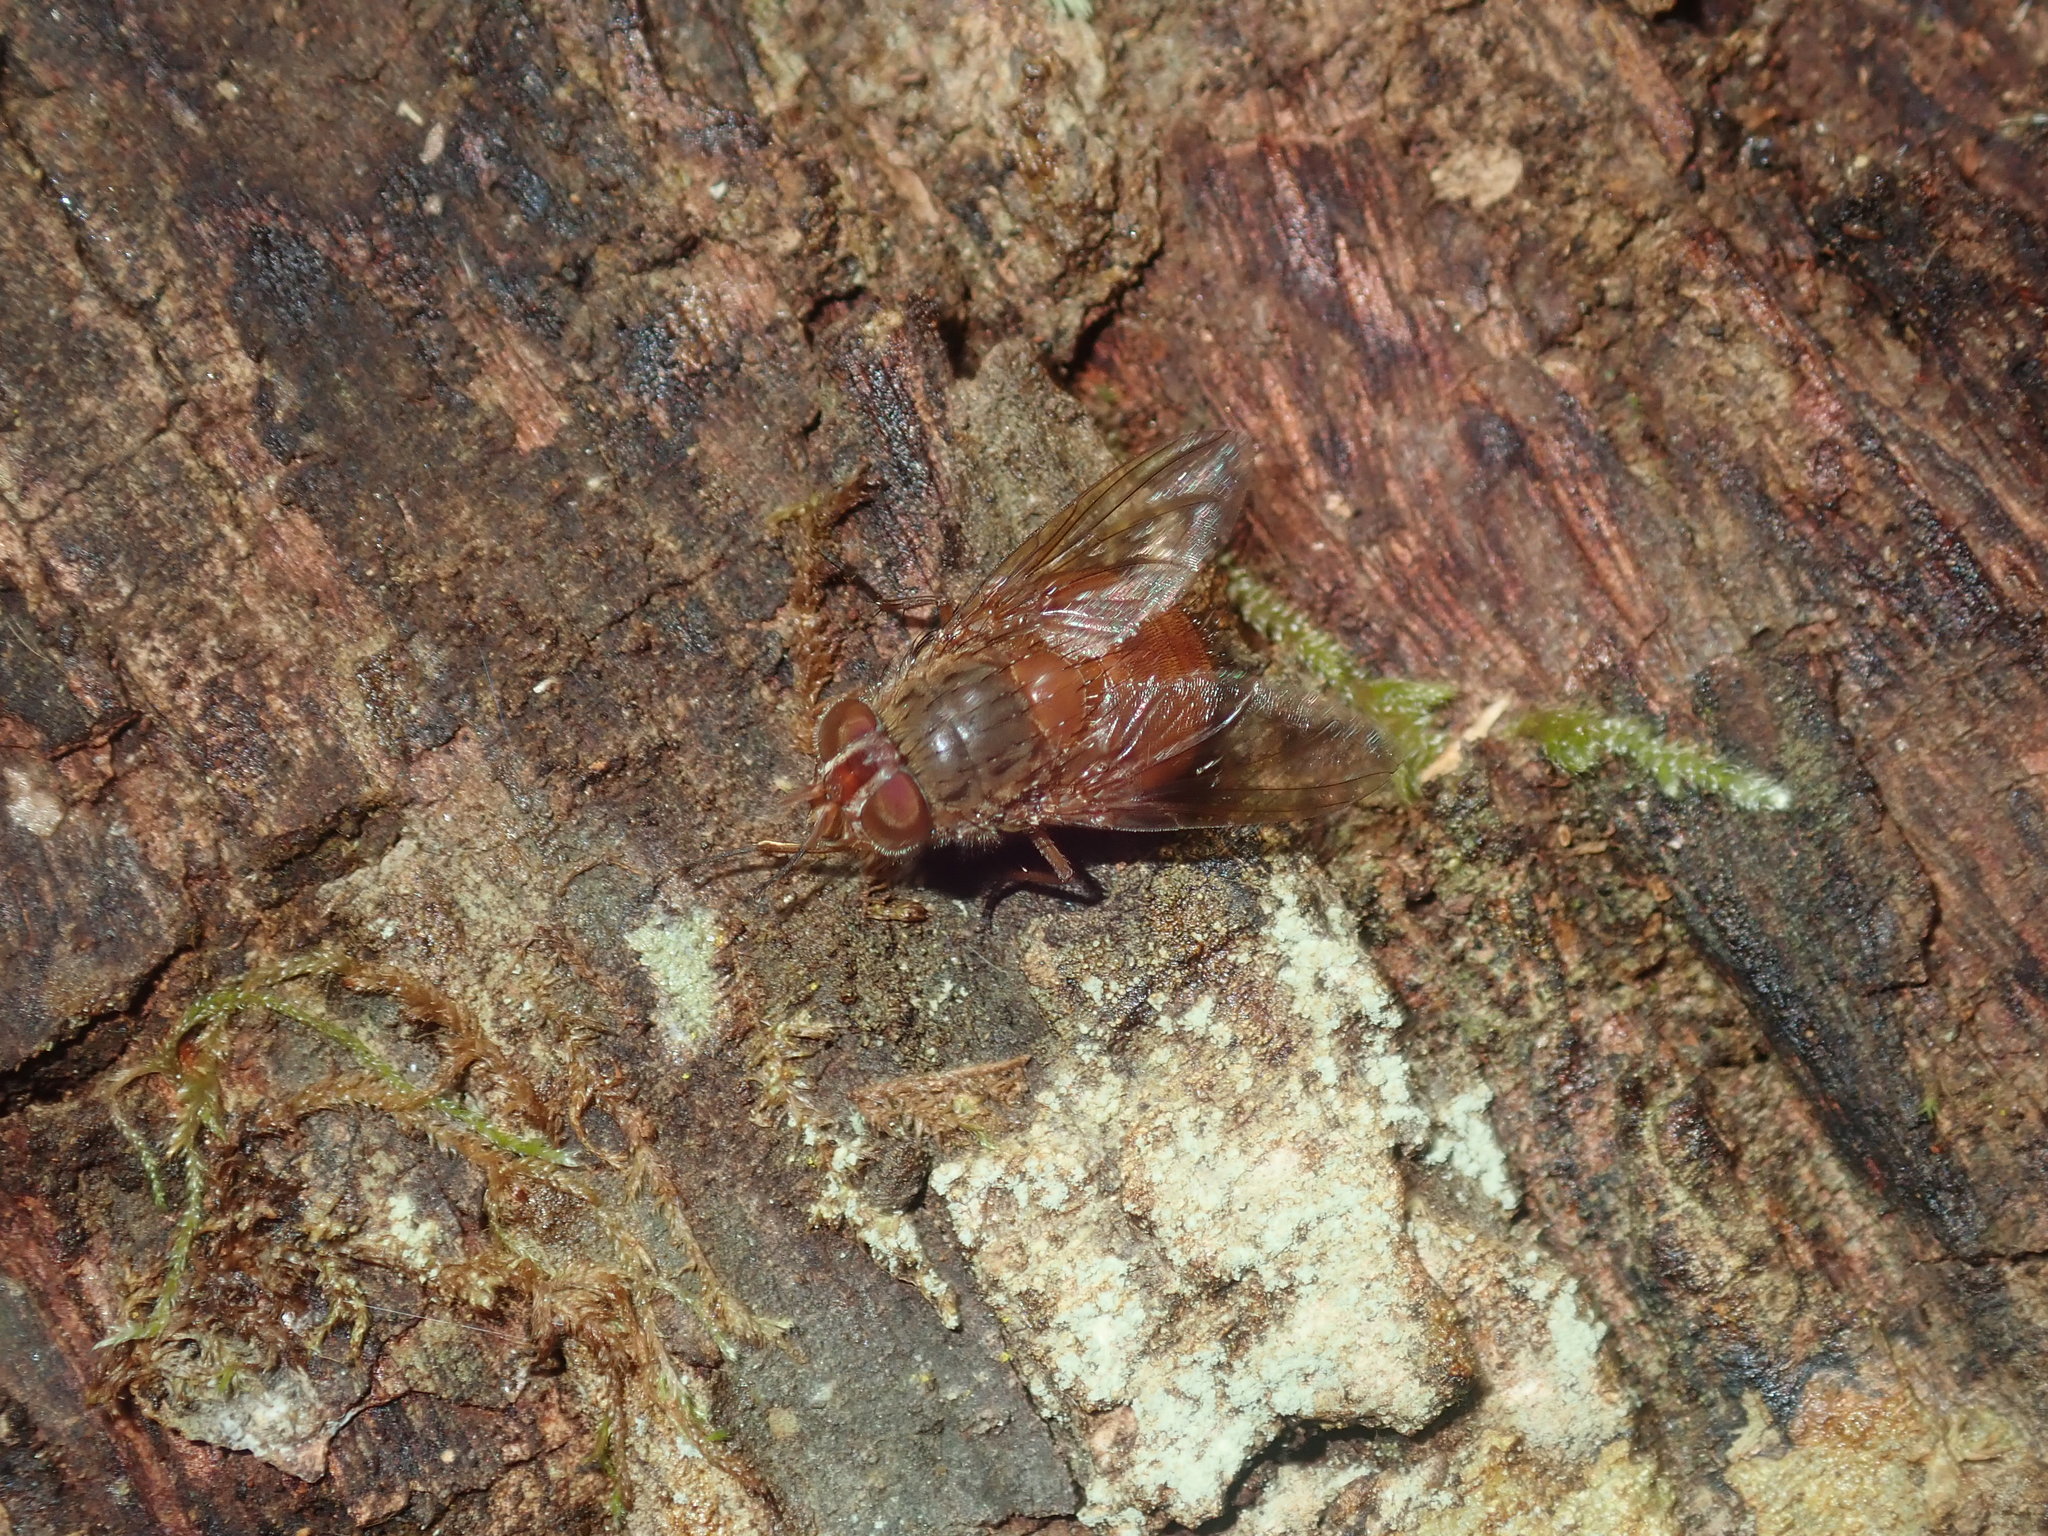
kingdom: Animalia
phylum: Arthropoda
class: Insecta
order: Diptera
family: Calliphoridae
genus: Calliphora
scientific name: Calliphora ochracea
